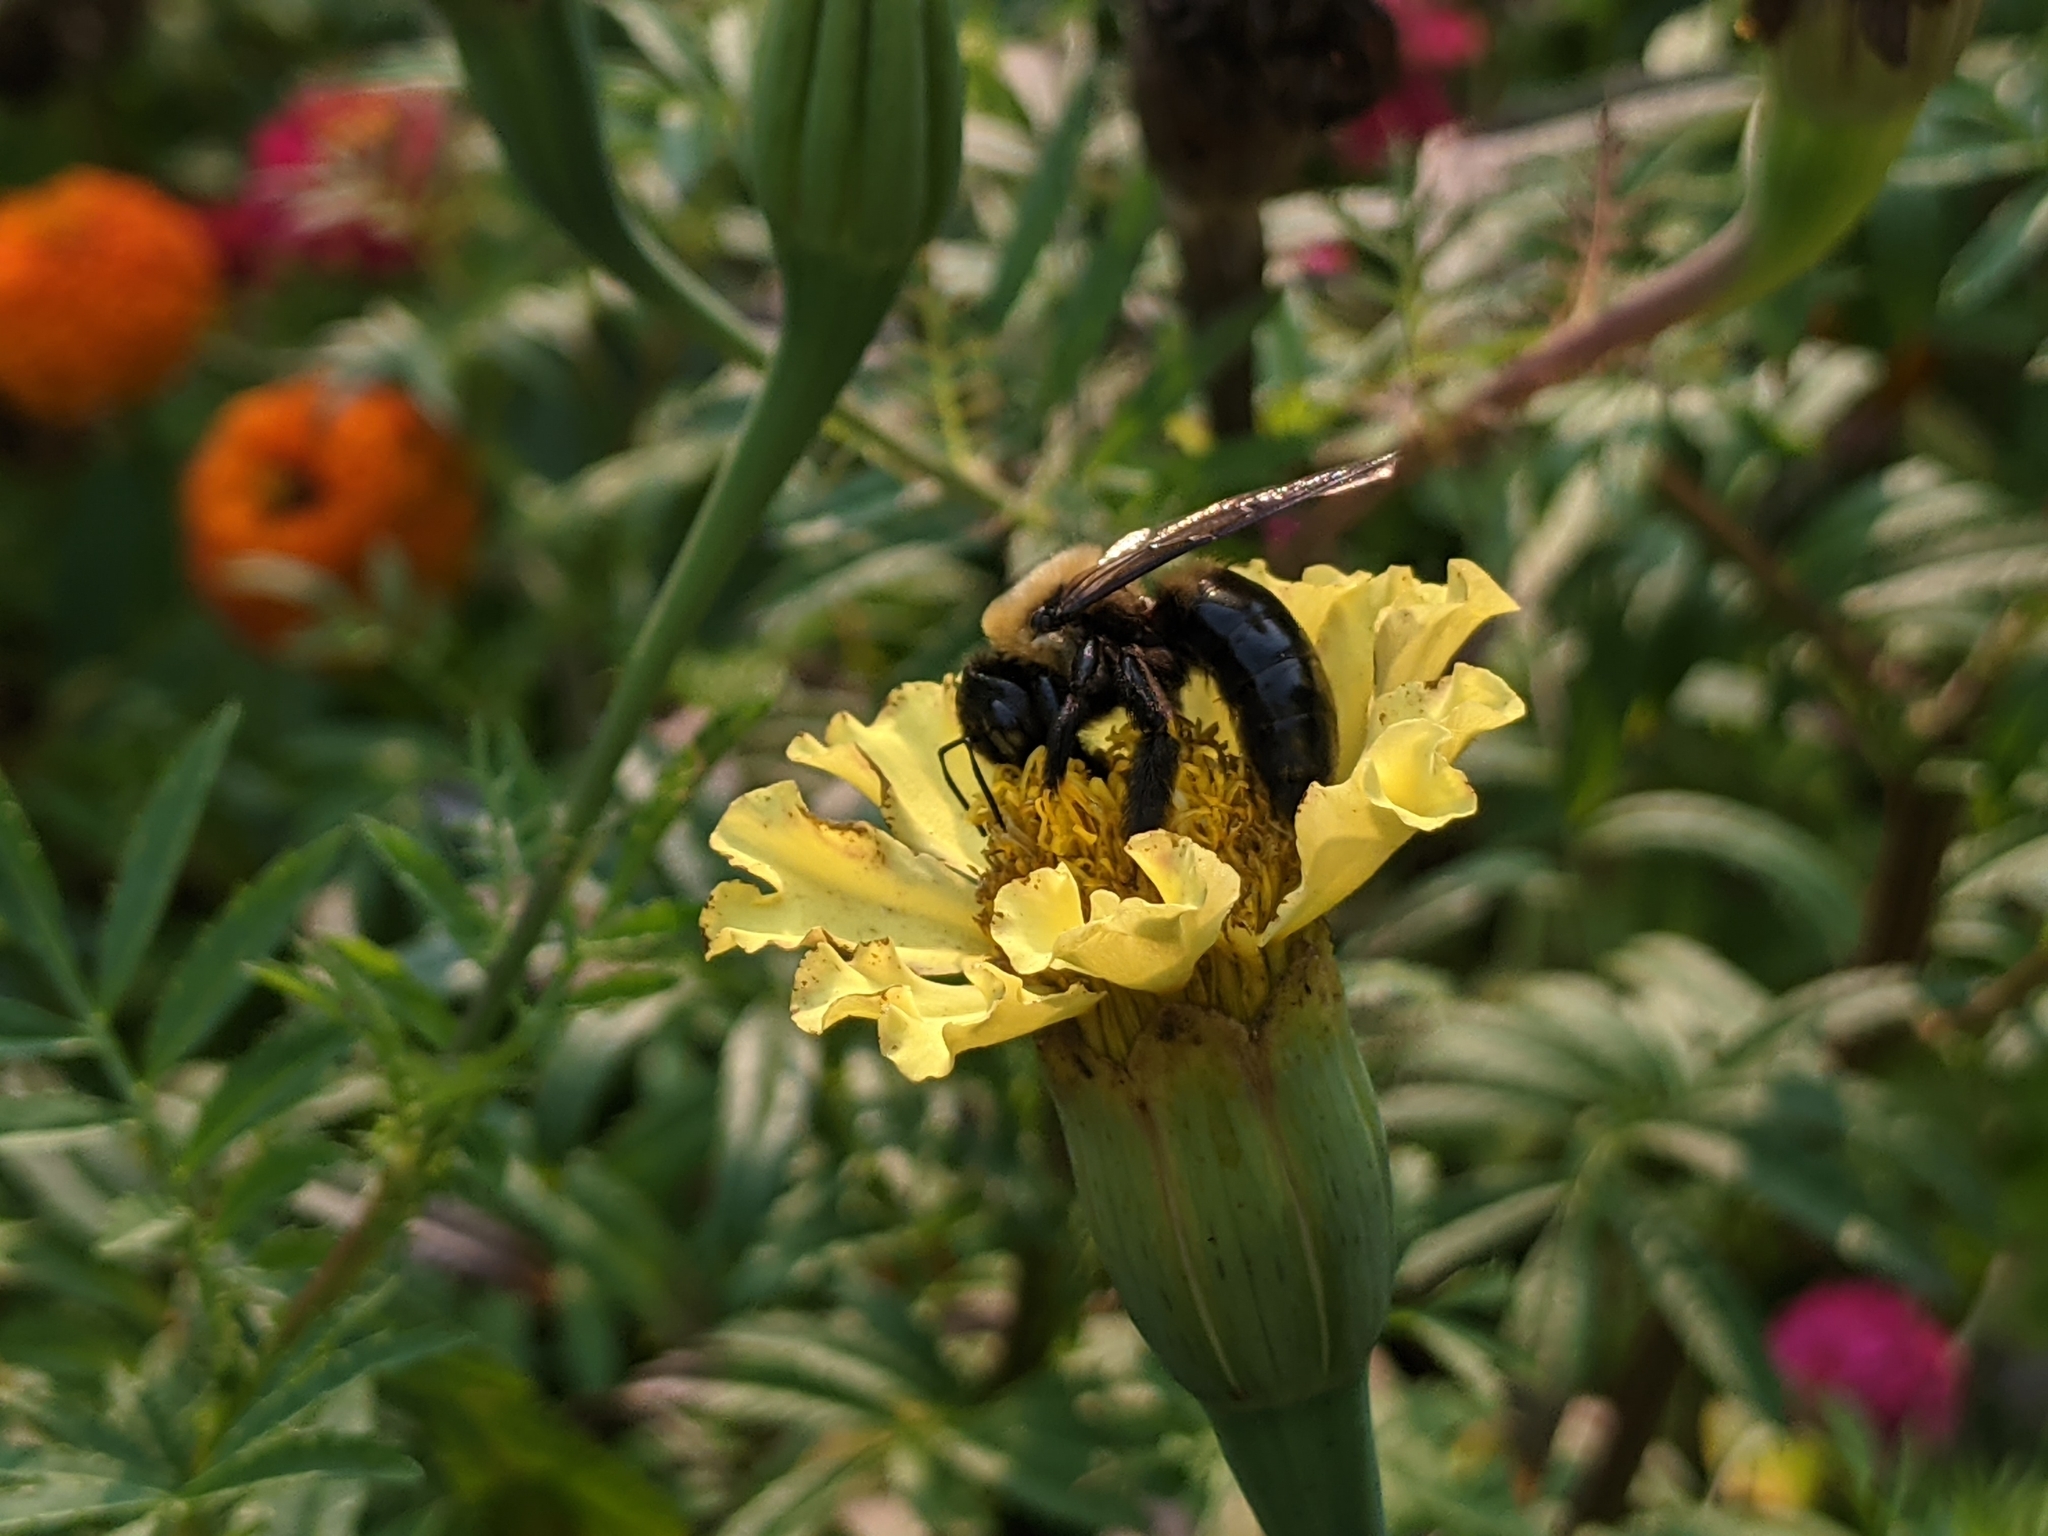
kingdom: Animalia
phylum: Arthropoda
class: Insecta
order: Hymenoptera
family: Apidae
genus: Xylocopa
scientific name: Xylocopa virginica
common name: Carpenter bee
